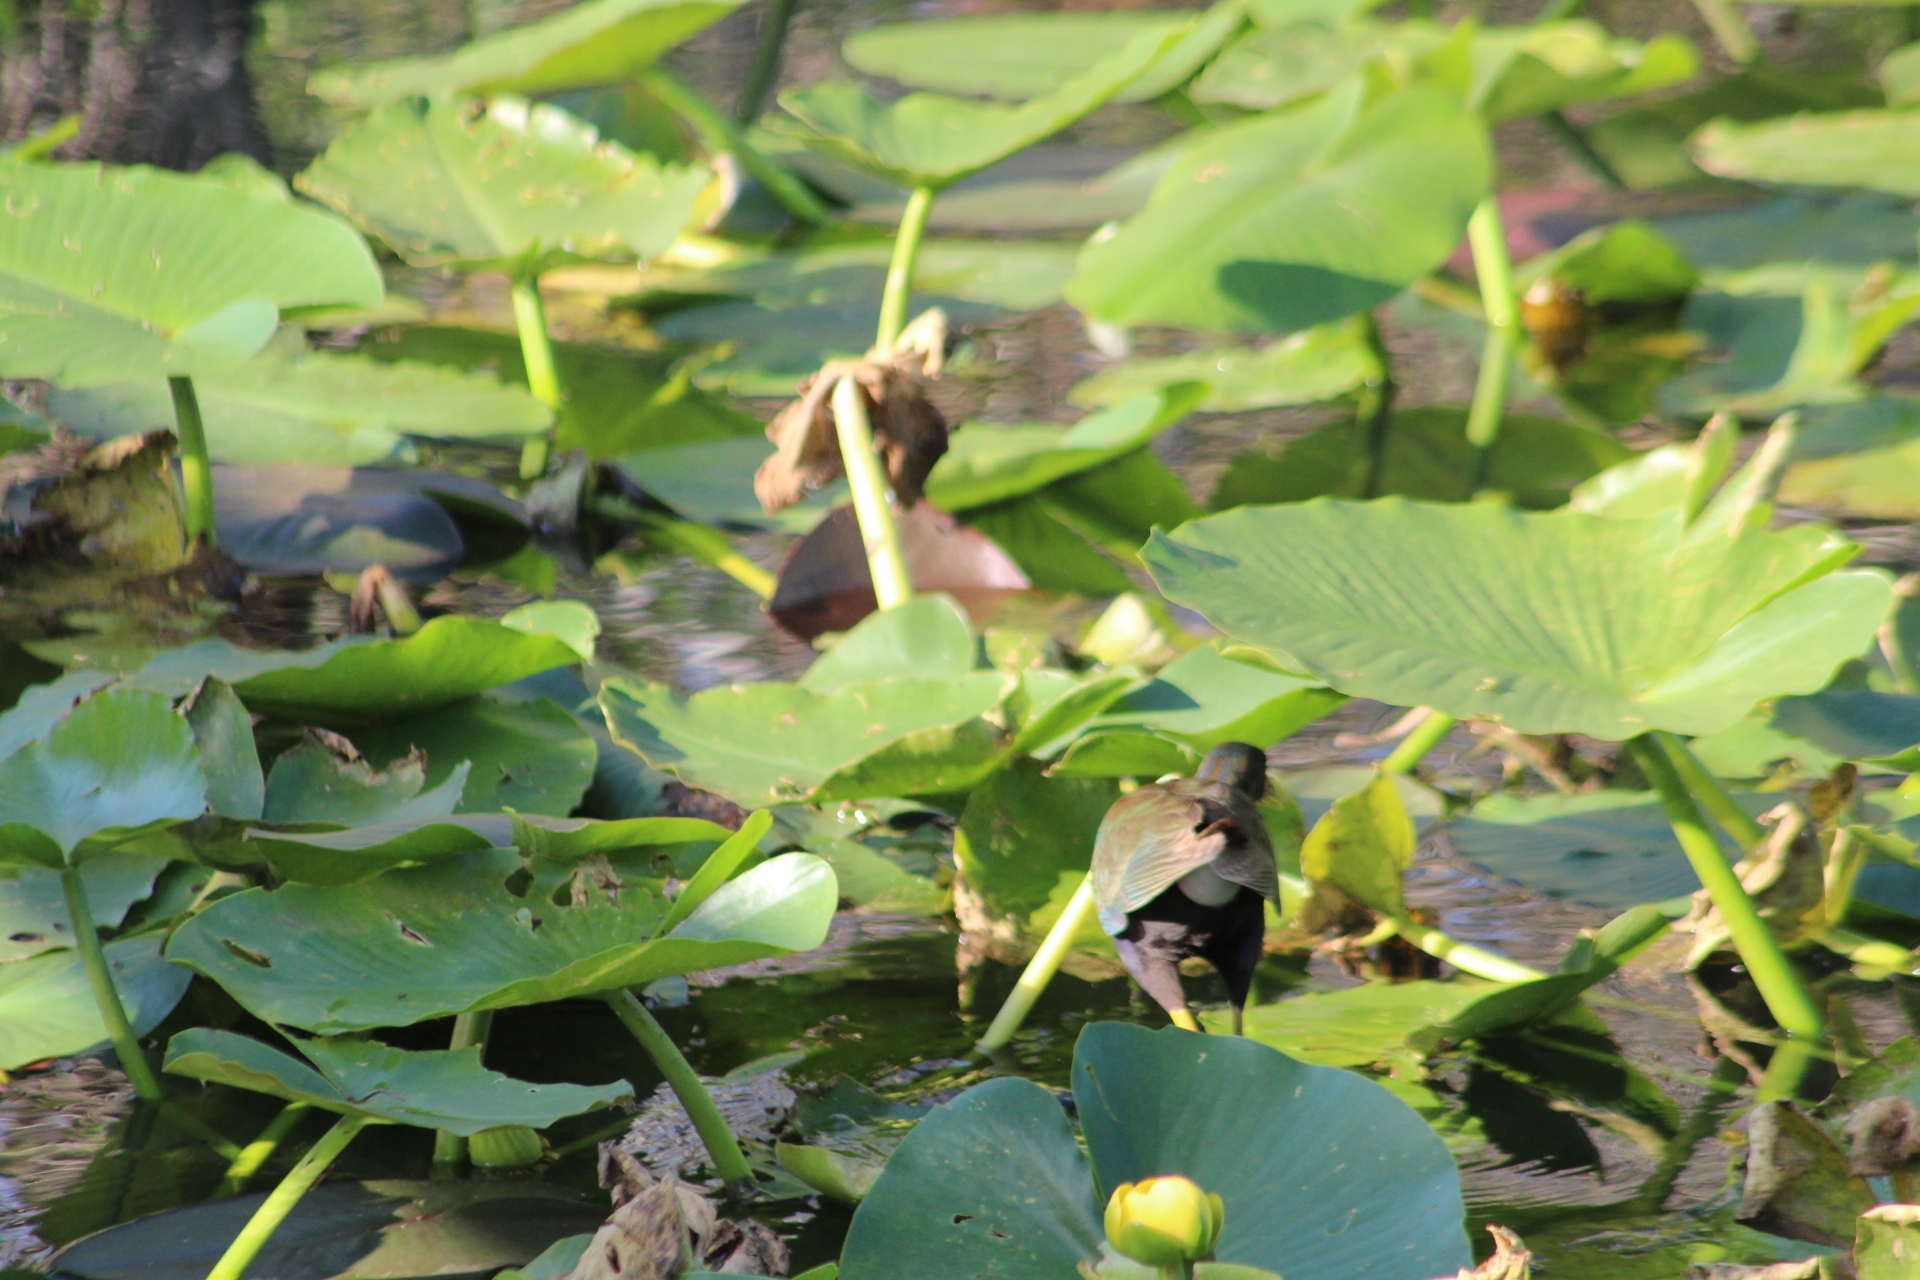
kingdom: Animalia
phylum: Chordata
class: Aves
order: Gruiformes
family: Rallidae
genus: Porphyrio
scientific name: Porphyrio martinica
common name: Purple gallinule
